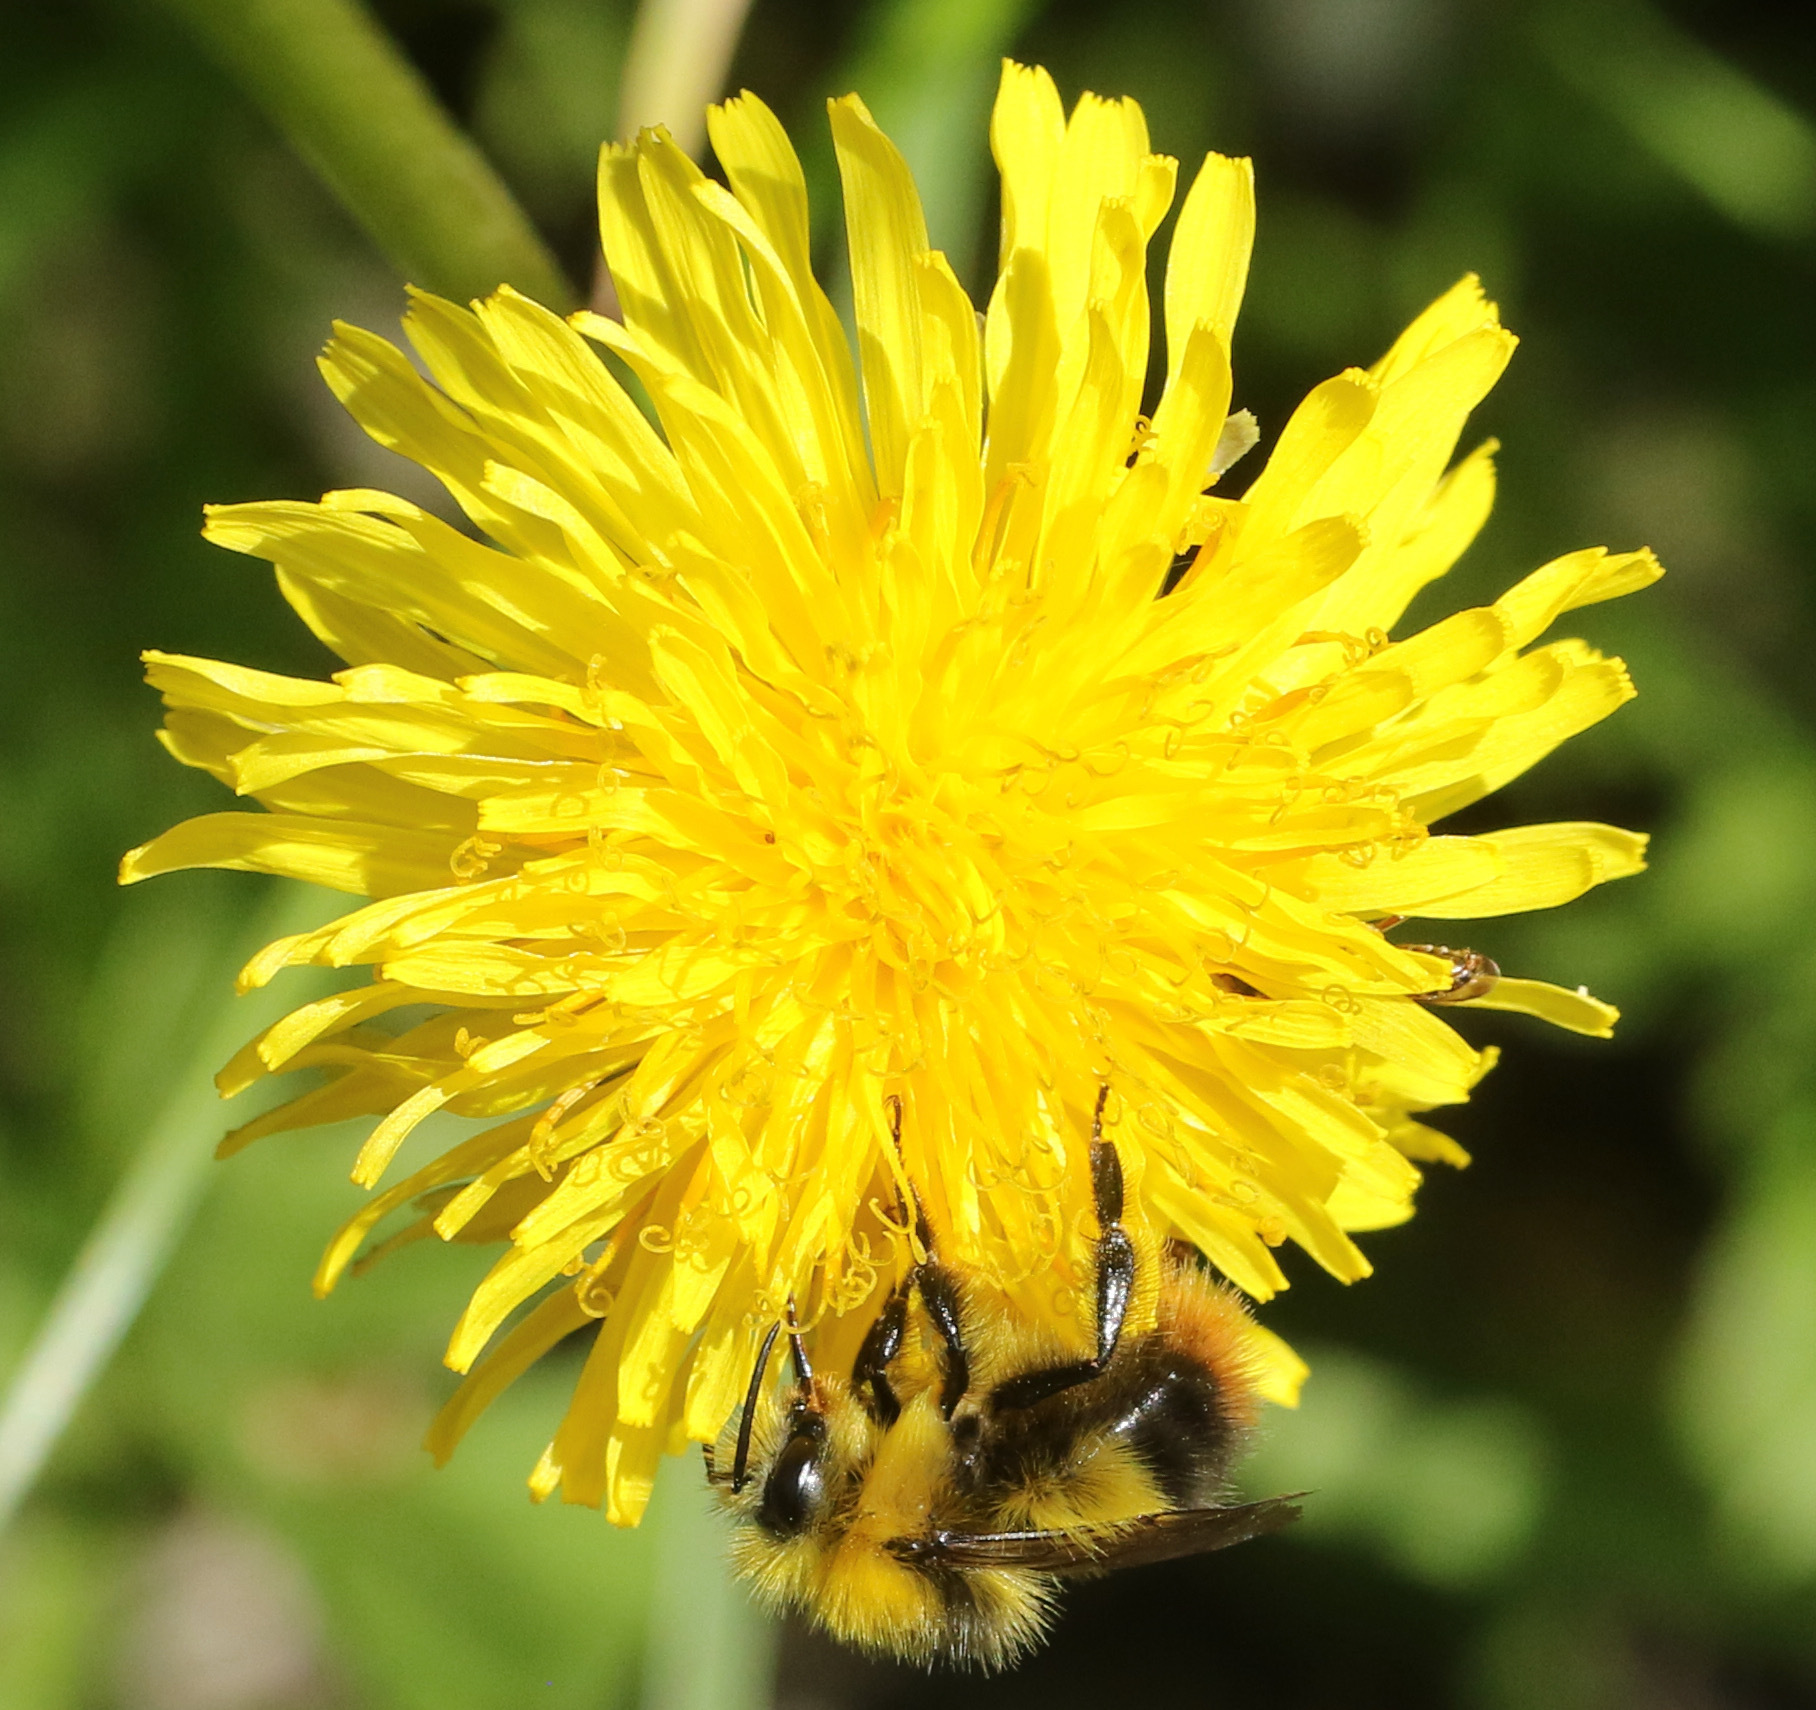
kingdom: Animalia
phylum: Arthropoda
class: Insecta
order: Hymenoptera
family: Apidae
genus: Bombus
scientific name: Bombus pratorum
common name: Early humble-bee
